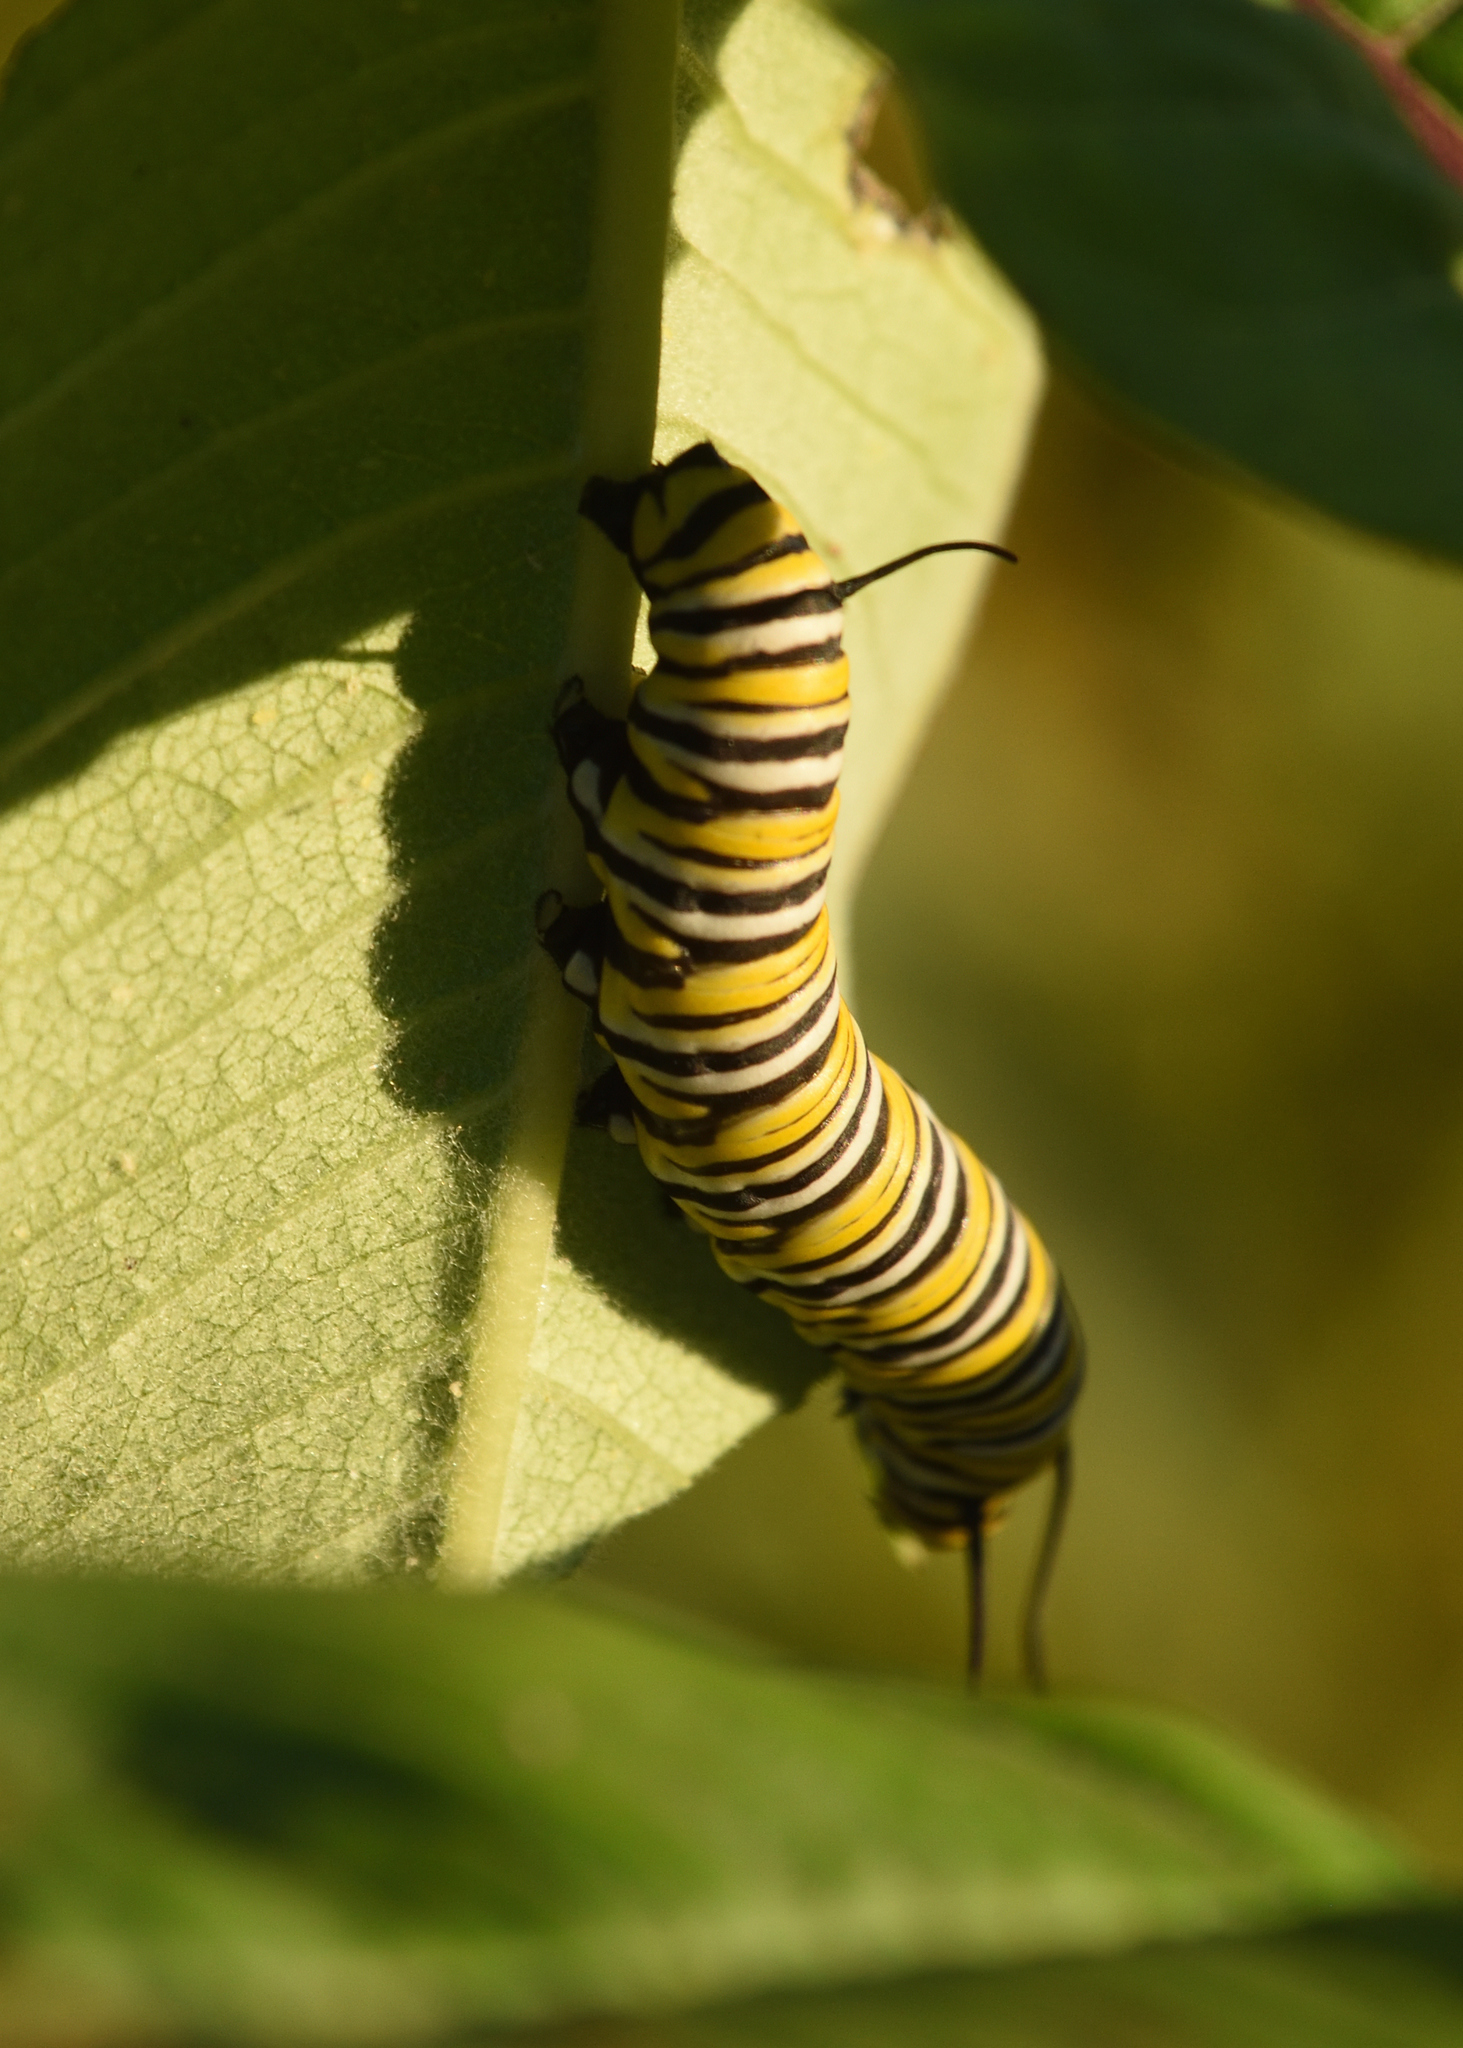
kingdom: Animalia
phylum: Arthropoda
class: Insecta
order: Lepidoptera
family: Nymphalidae
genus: Danaus
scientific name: Danaus plexippus
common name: Monarch
